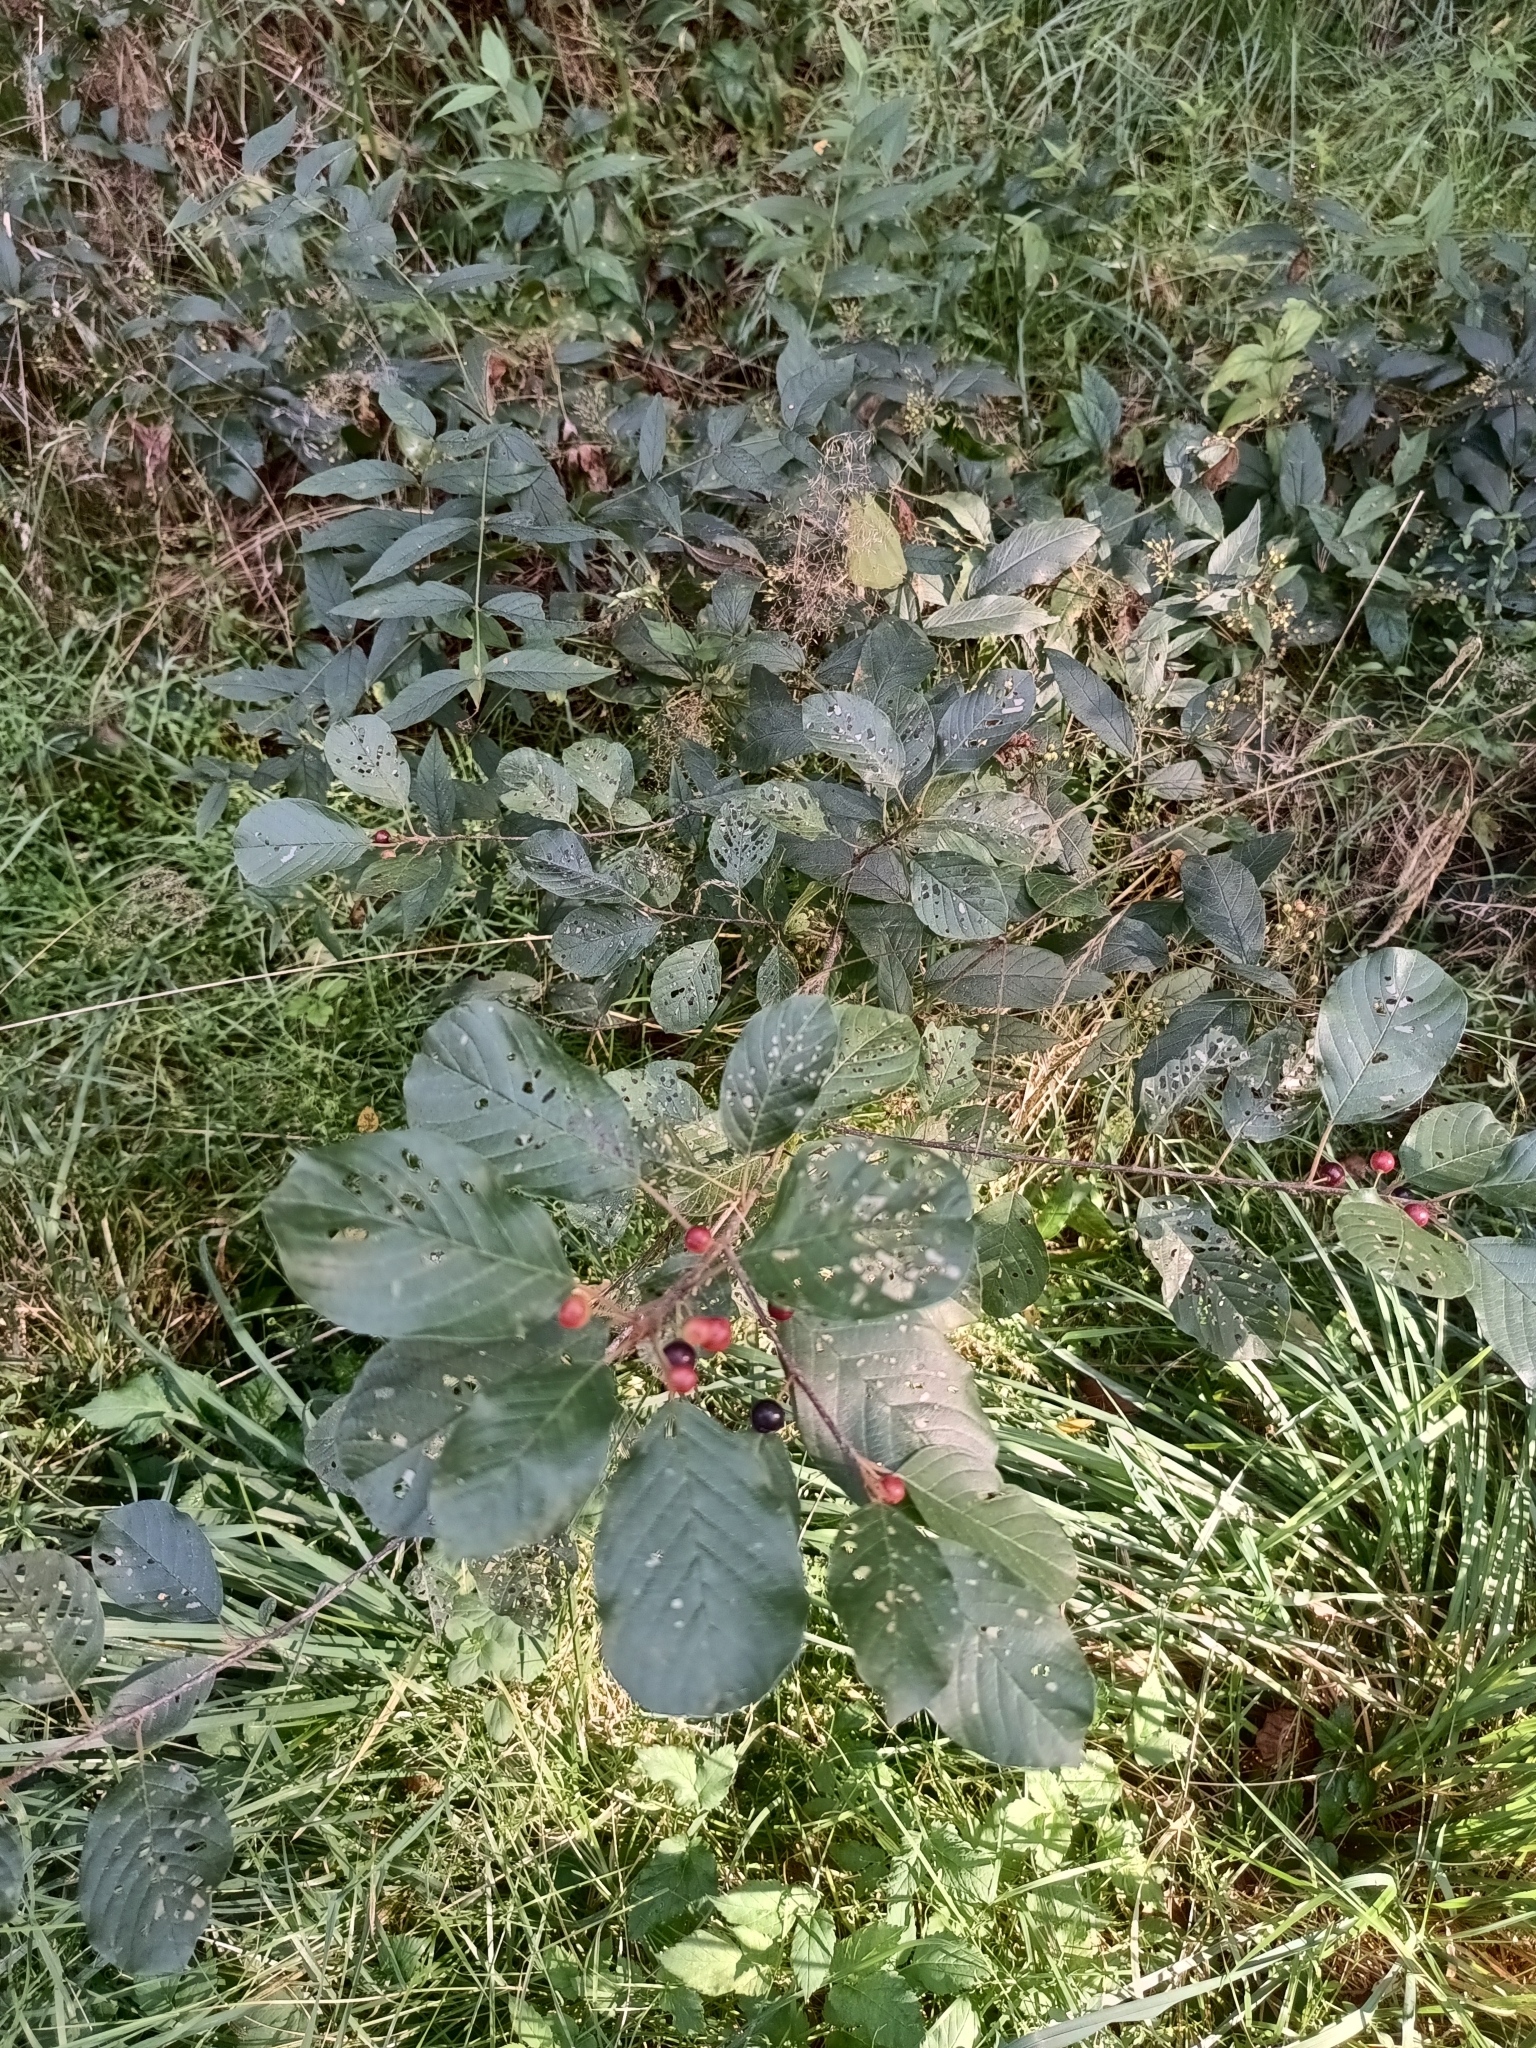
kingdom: Plantae
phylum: Tracheophyta
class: Magnoliopsida
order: Rosales
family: Rhamnaceae
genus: Frangula
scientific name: Frangula alnus
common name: Alder buckthorn
